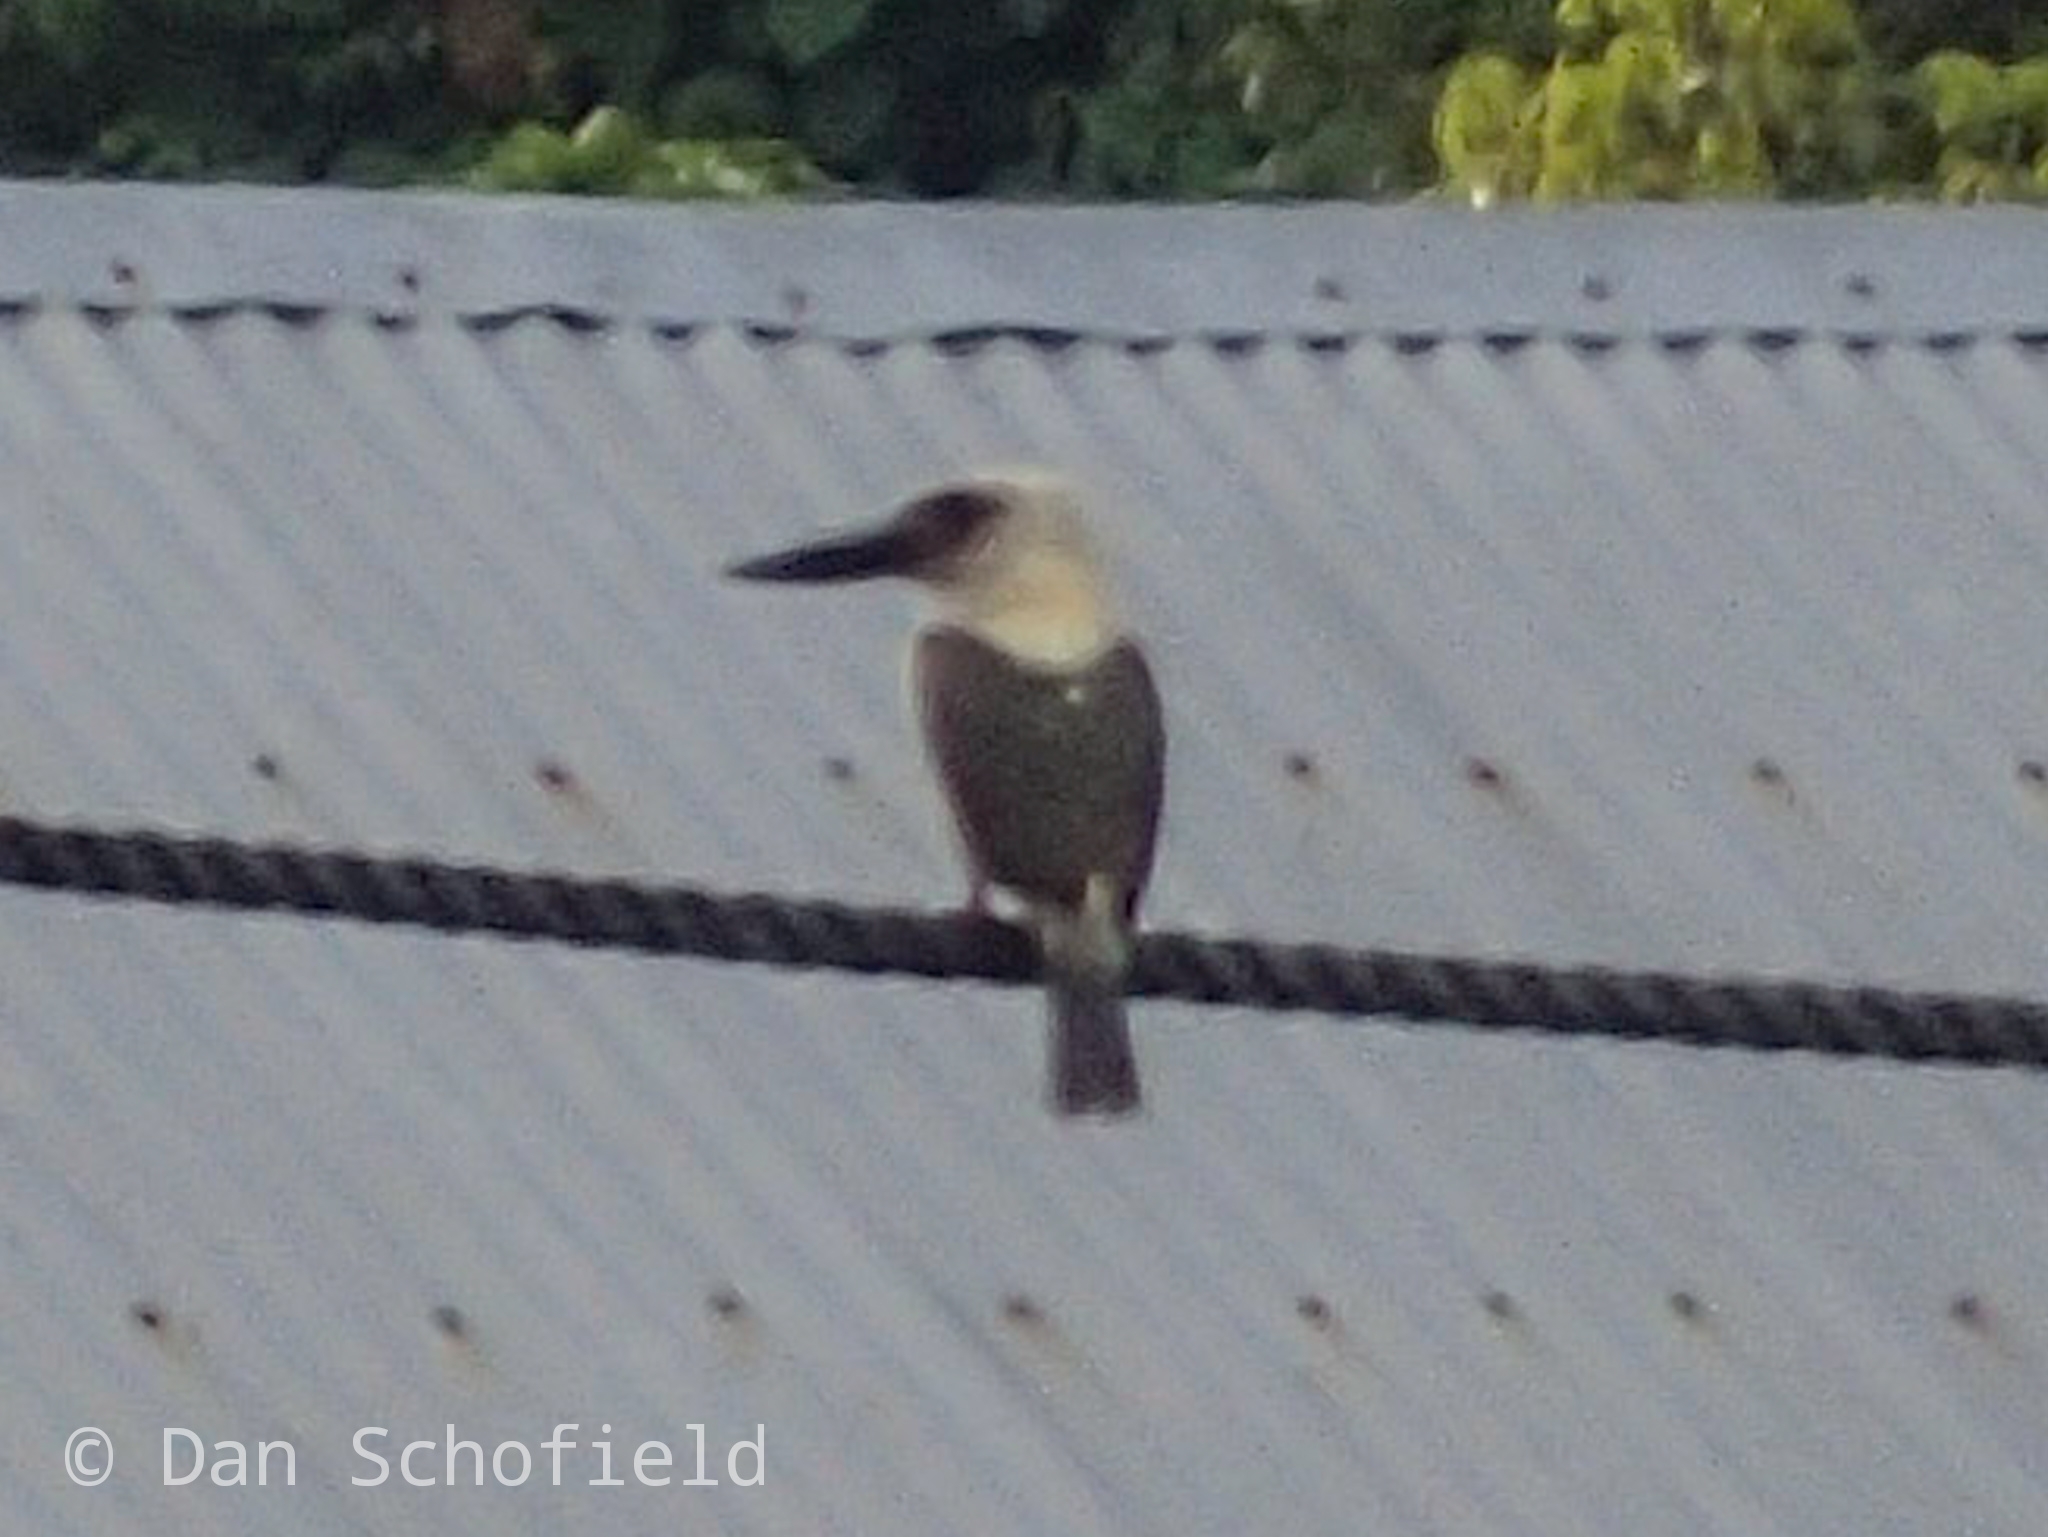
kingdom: Animalia
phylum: Chordata
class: Aves
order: Coraciiformes
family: Alcedinidae
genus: Pelargopsis
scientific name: Pelargopsis melanorhyncha
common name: Great-billed kingfisher
